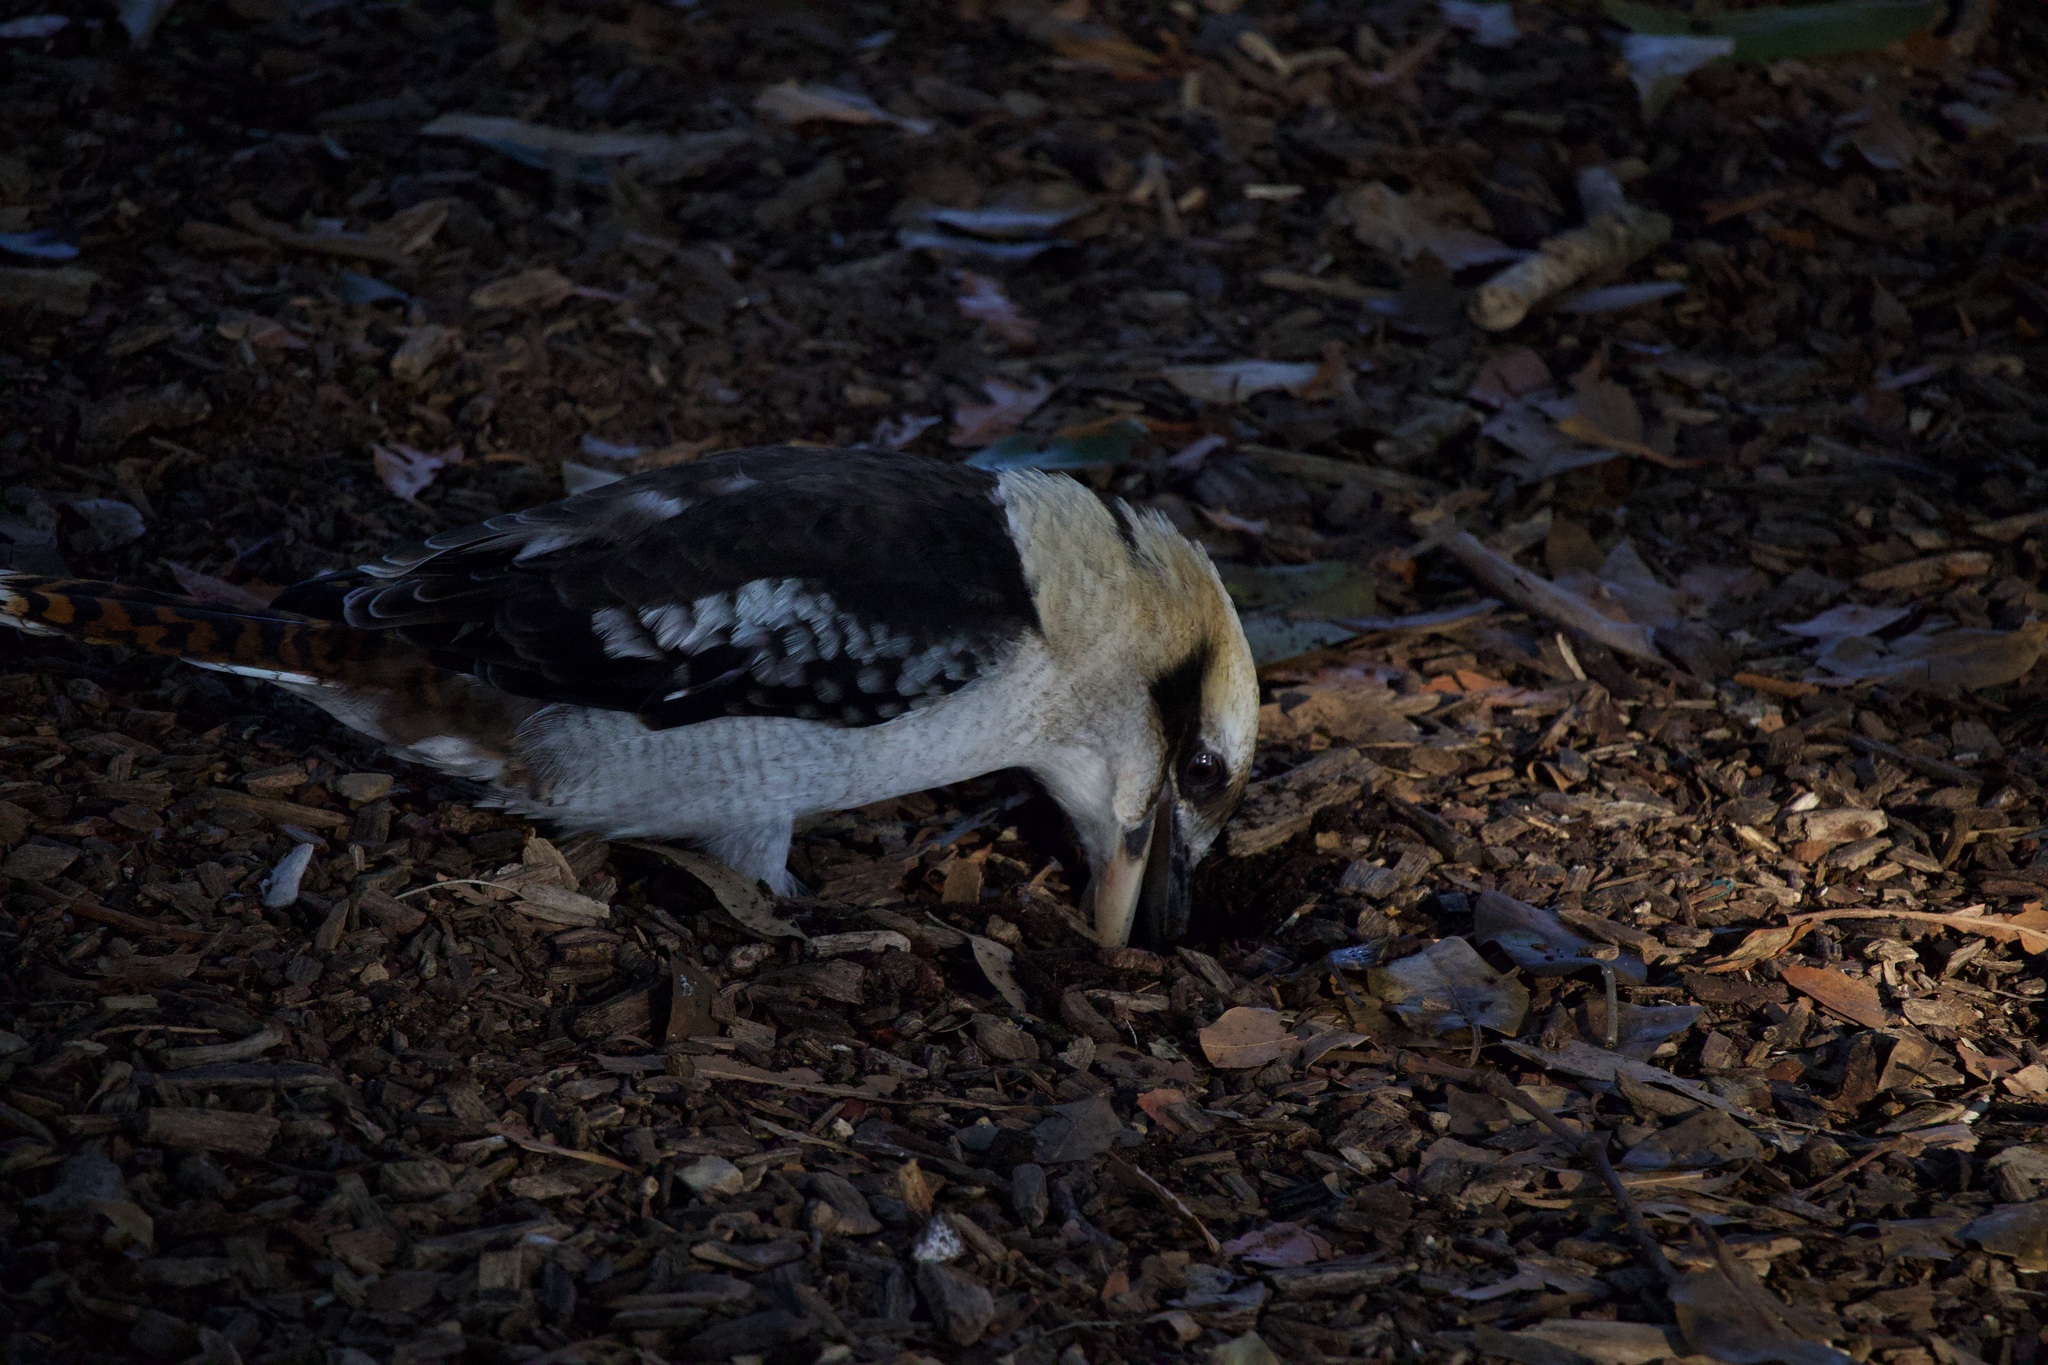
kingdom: Animalia
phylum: Chordata
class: Aves
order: Coraciiformes
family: Alcedinidae
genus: Dacelo
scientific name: Dacelo novaeguineae
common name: Laughing kookaburra
